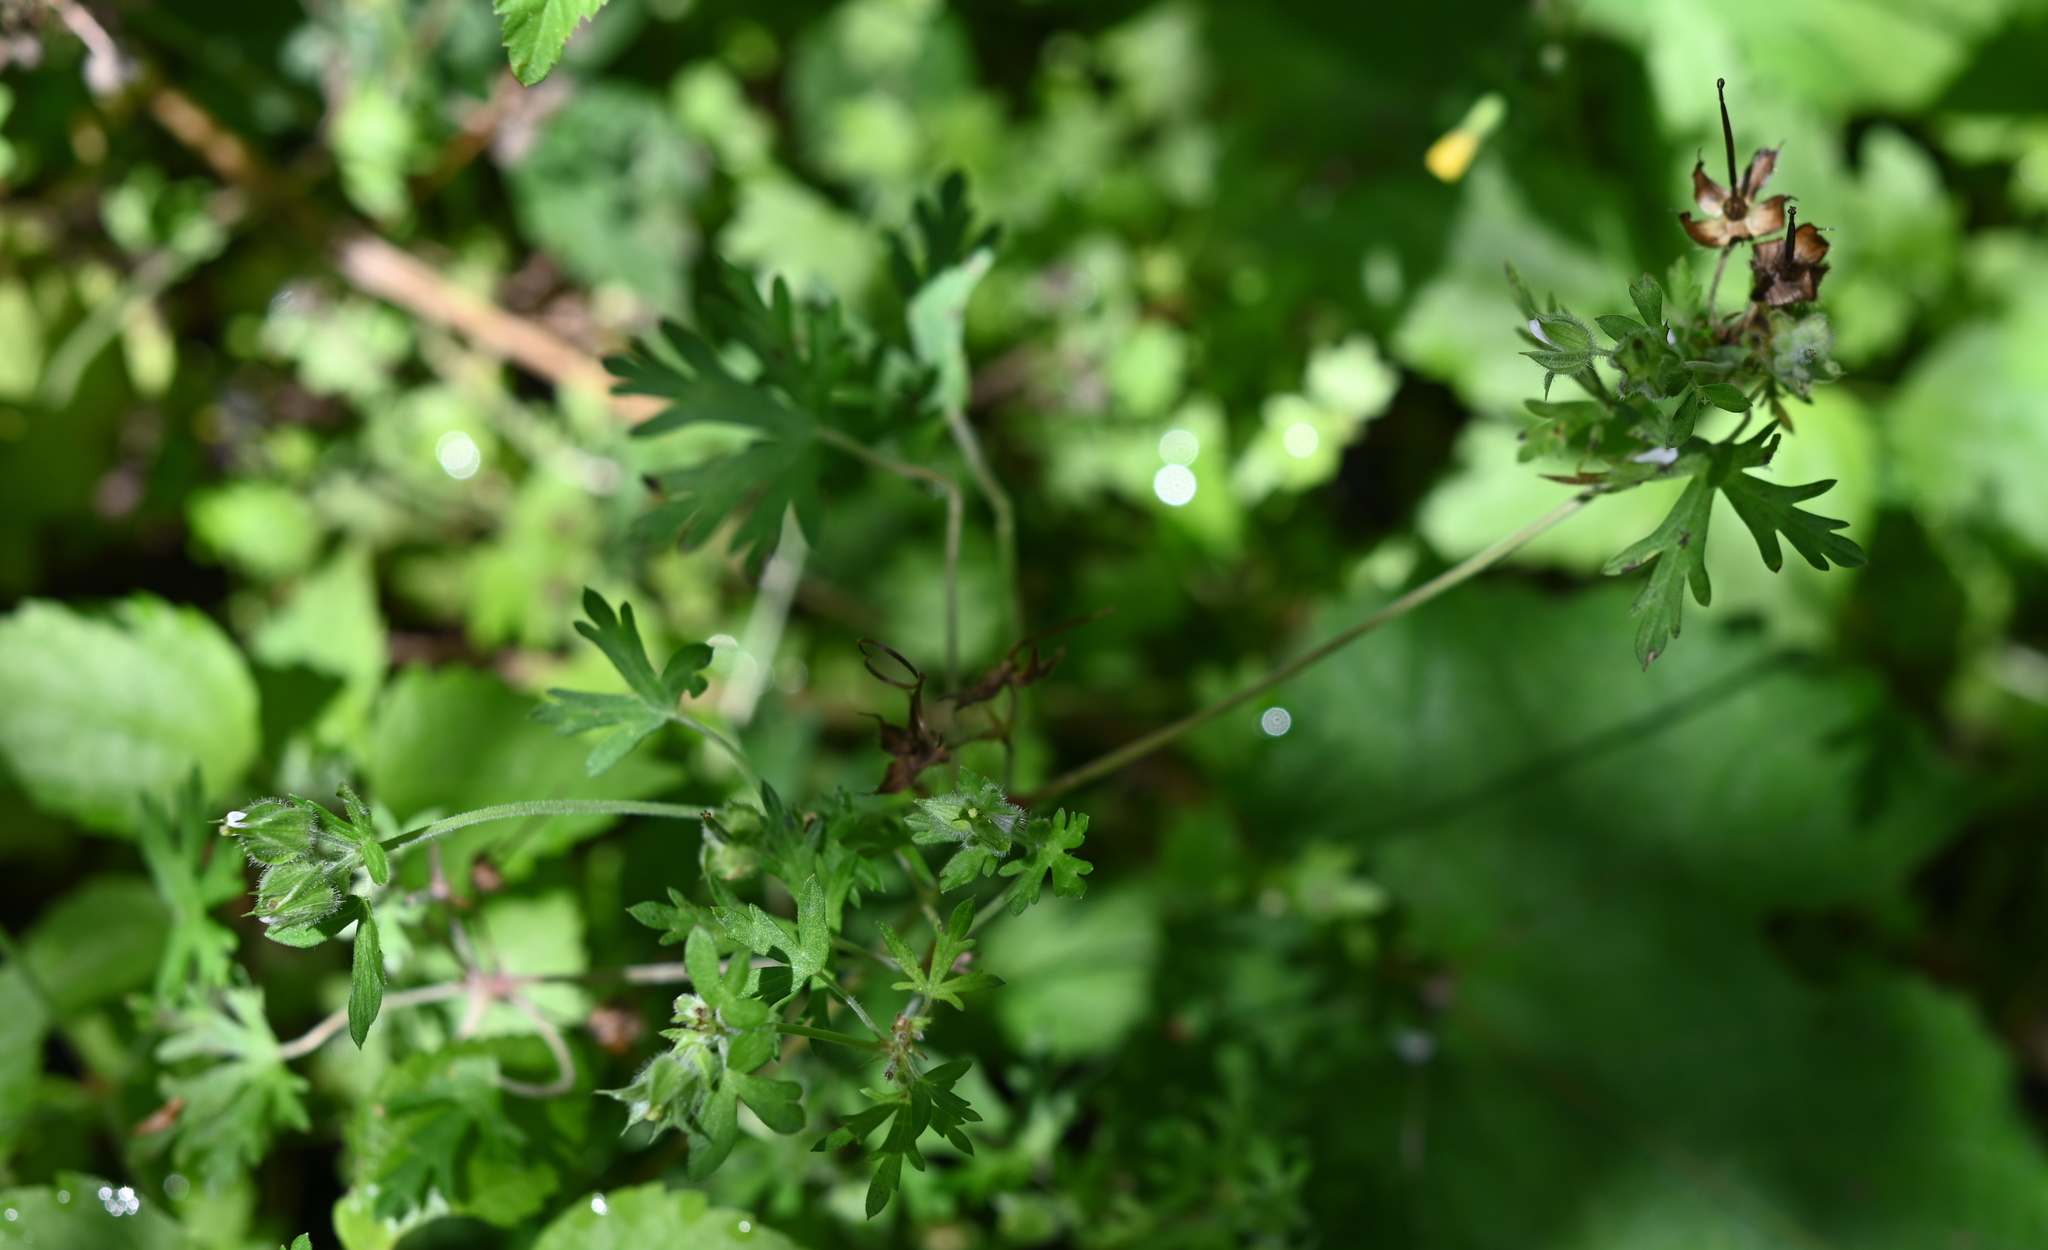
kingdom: Plantae
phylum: Tracheophyta
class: Magnoliopsida
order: Geraniales
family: Geraniaceae
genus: Geranium
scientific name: Geranium carolinianum
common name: Carolina crane's-bill
